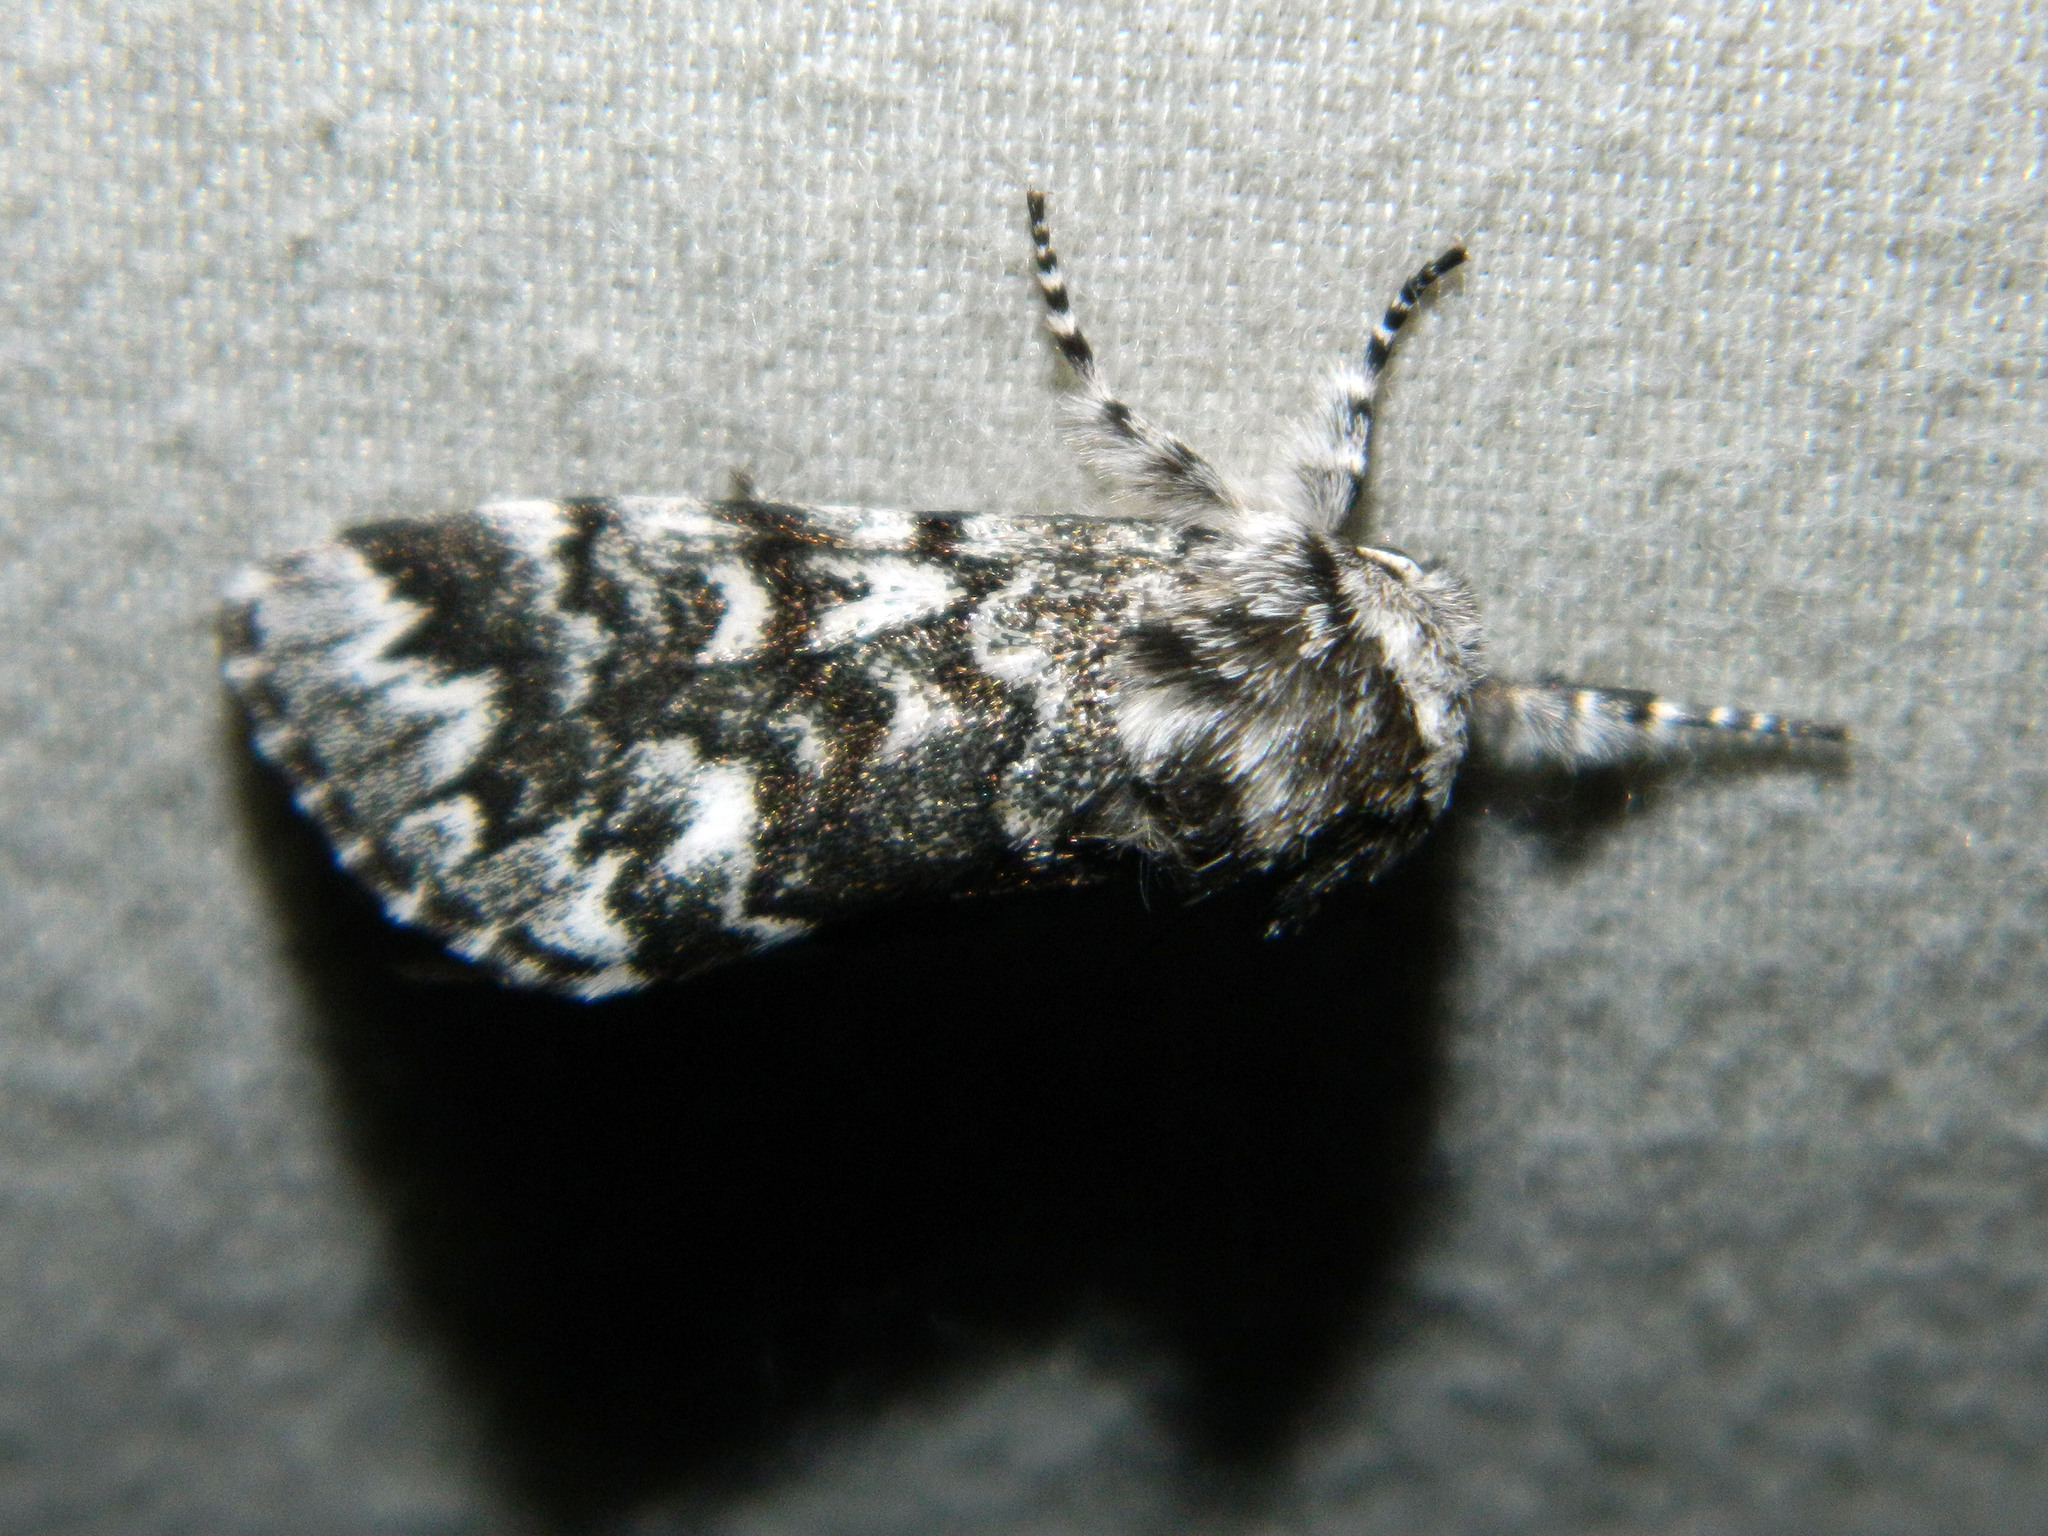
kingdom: Animalia
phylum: Arthropoda
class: Insecta
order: Lepidoptera
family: Noctuidae
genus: Panthea
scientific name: Panthea acronyctoides
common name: Black zigzag moth
